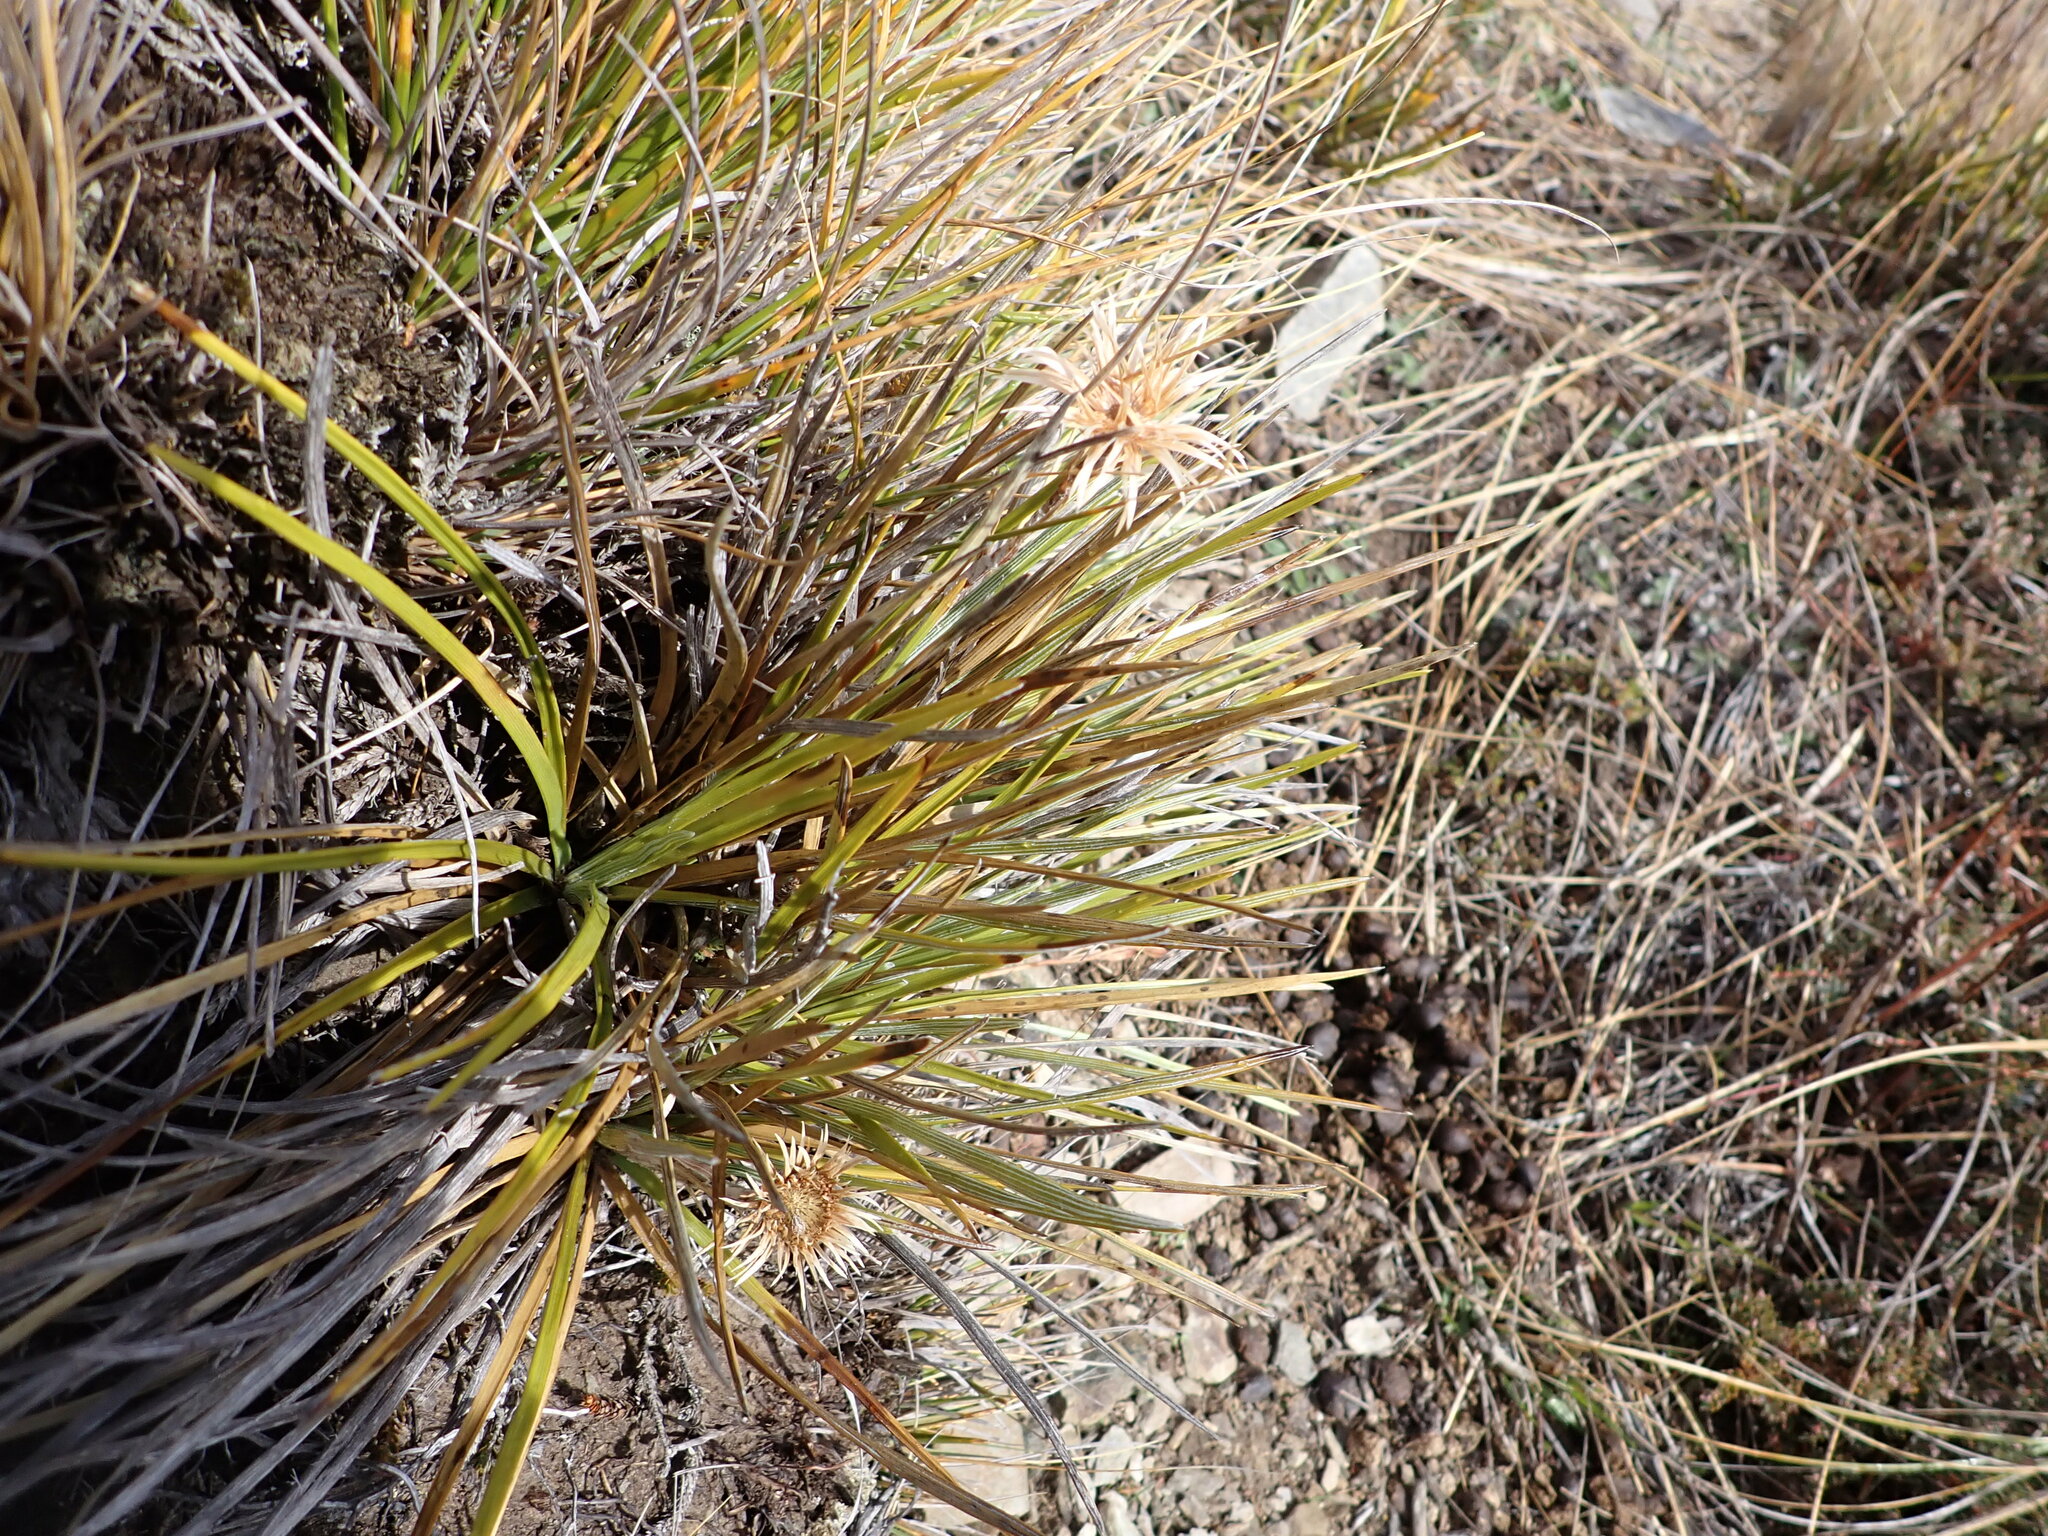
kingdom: Plantae
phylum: Tracheophyta
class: Magnoliopsida
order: Asterales
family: Asteraceae
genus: Celmisia
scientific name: Celmisia lyallii
